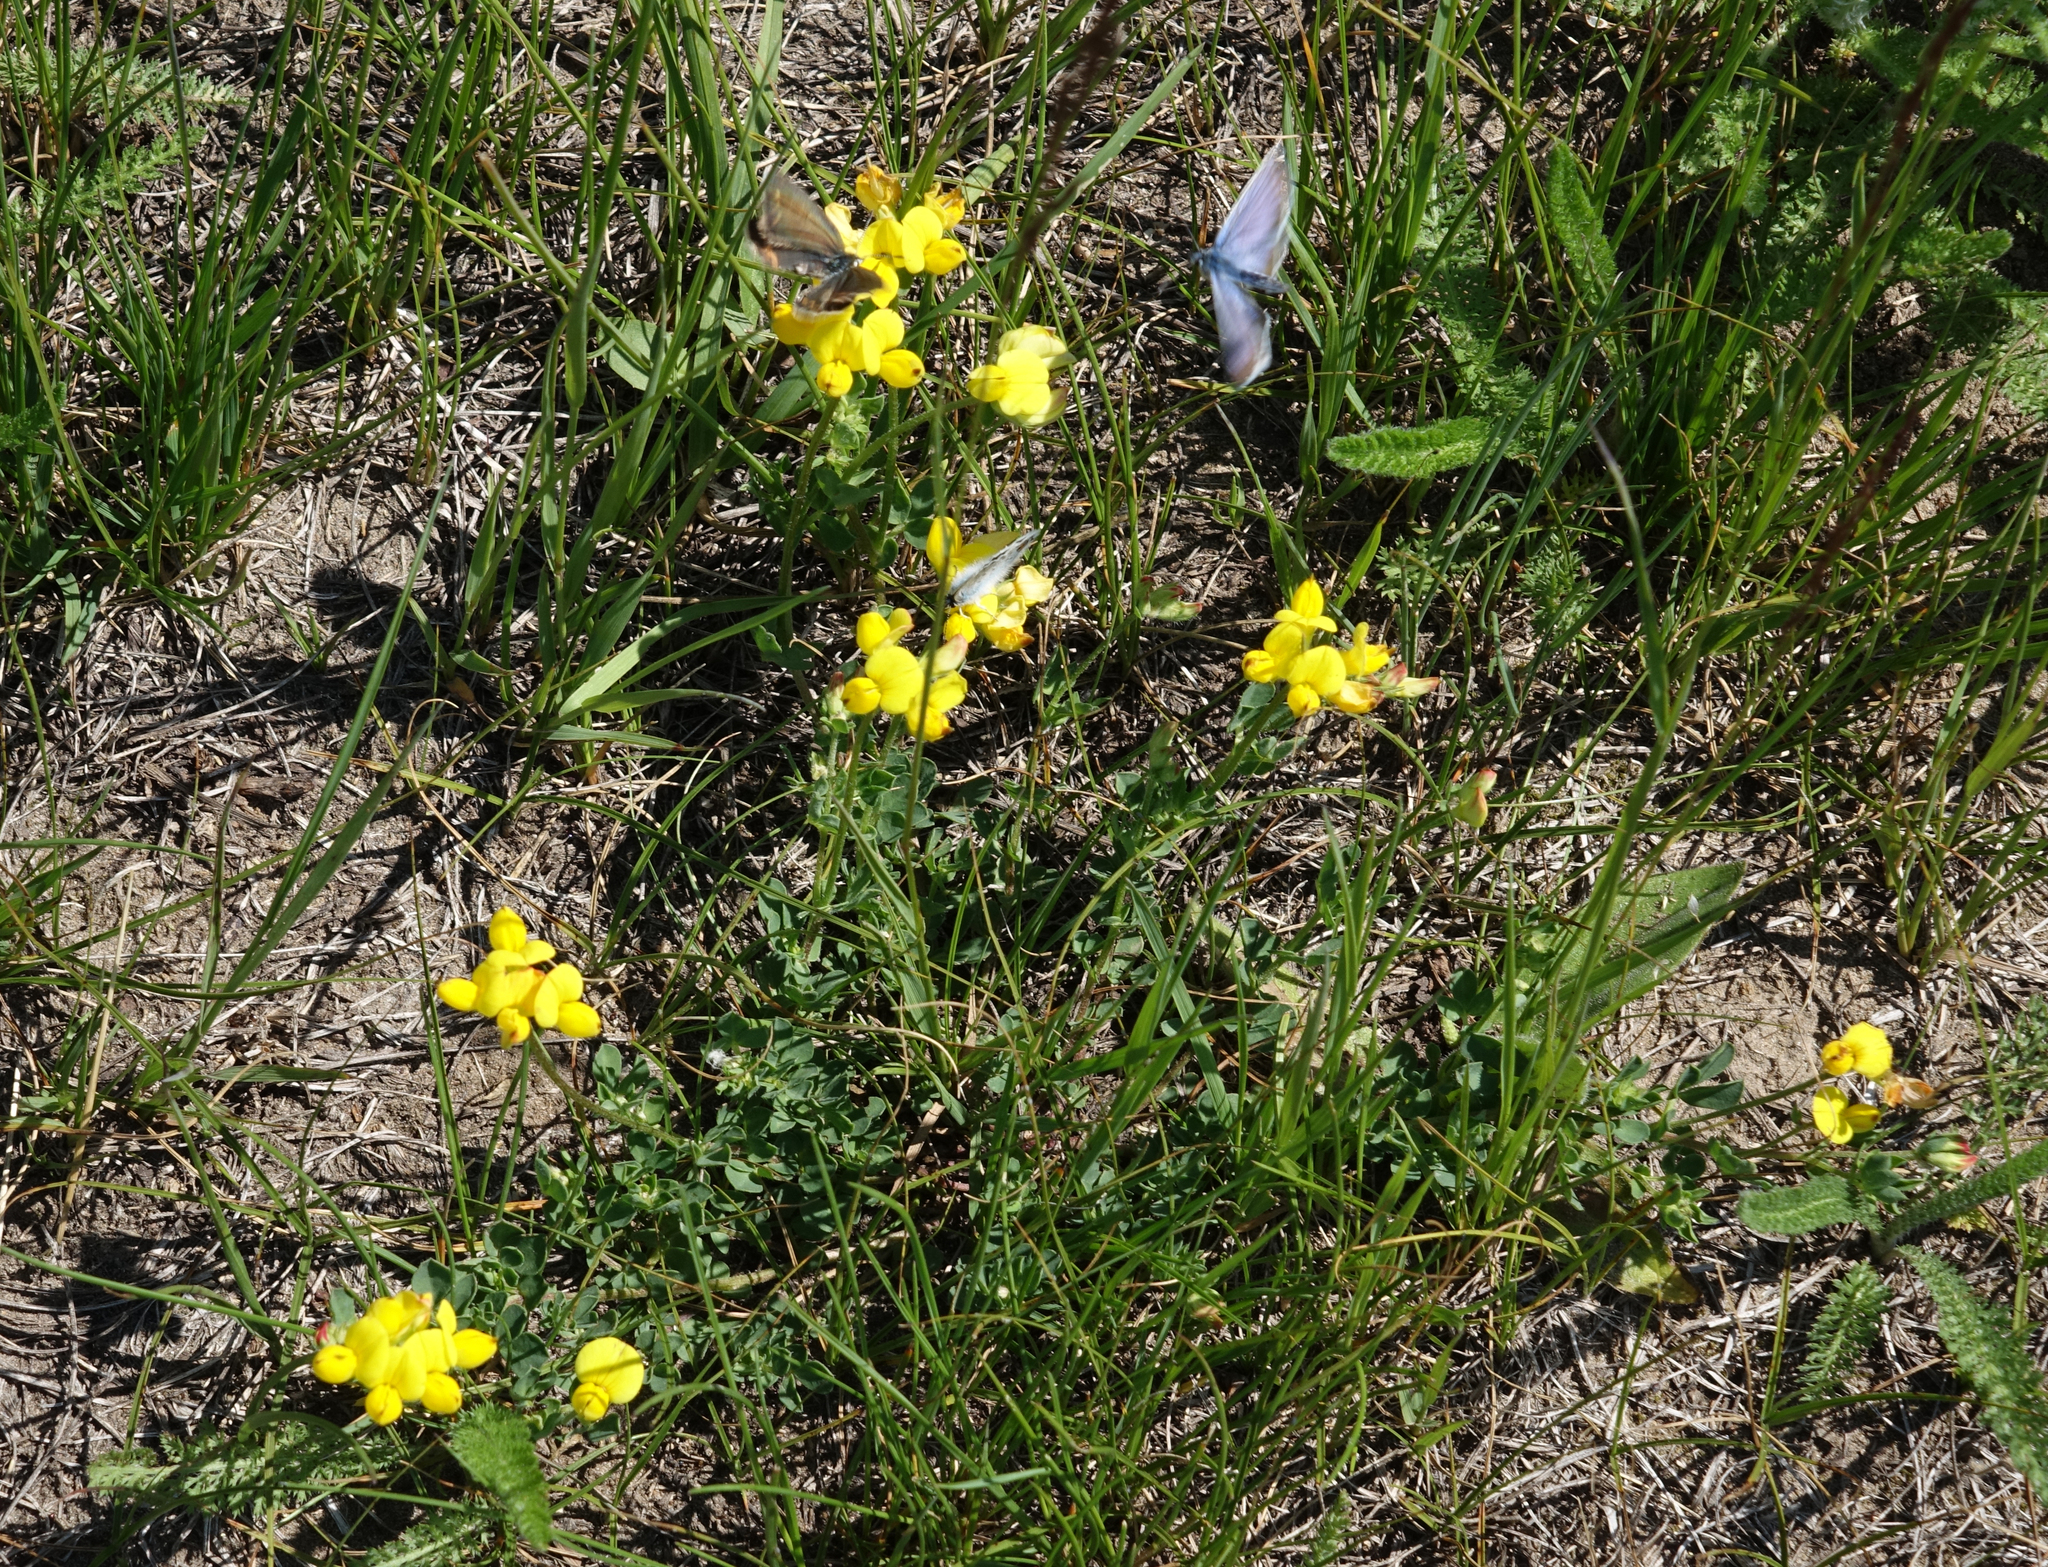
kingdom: Plantae
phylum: Tracheophyta
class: Magnoliopsida
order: Fabales
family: Fabaceae
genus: Lotus
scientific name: Lotus corniculatus
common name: Common bird's-foot-trefoil
